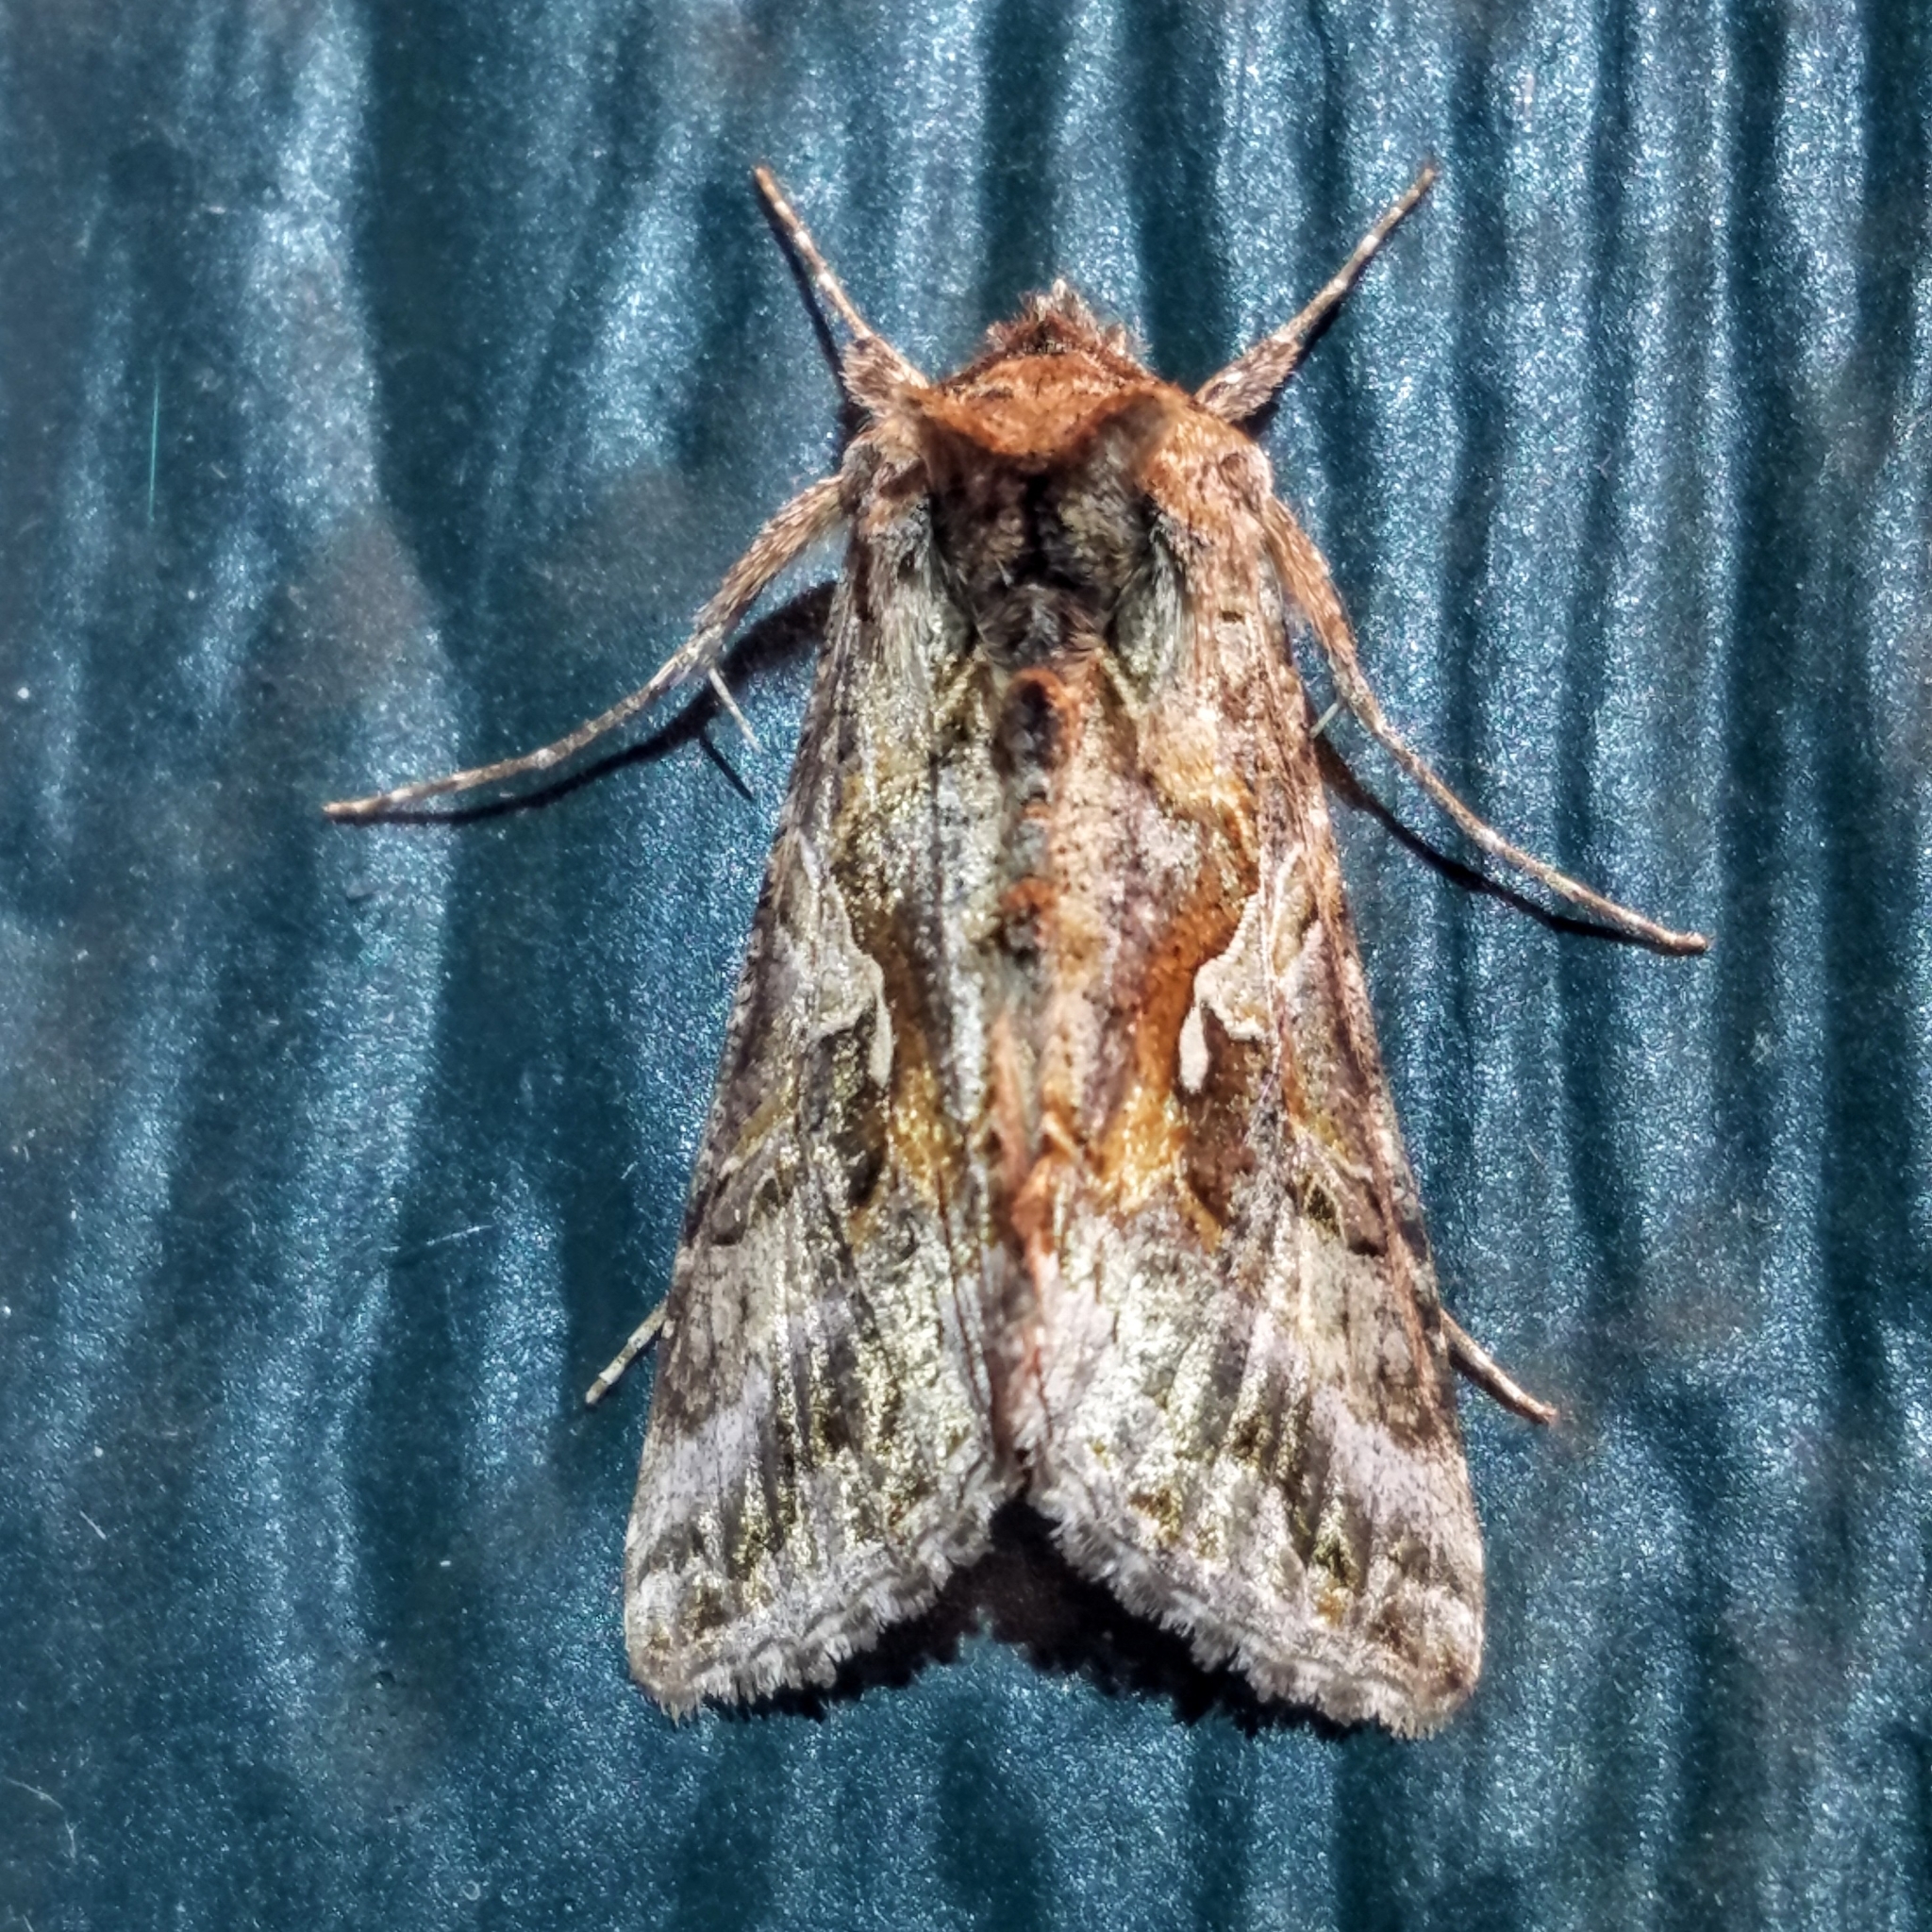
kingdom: Animalia
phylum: Arthropoda
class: Insecta
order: Lepidoptera
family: Noctuidae
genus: Autographa
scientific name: Autographa californica
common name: Alfalfa looper
